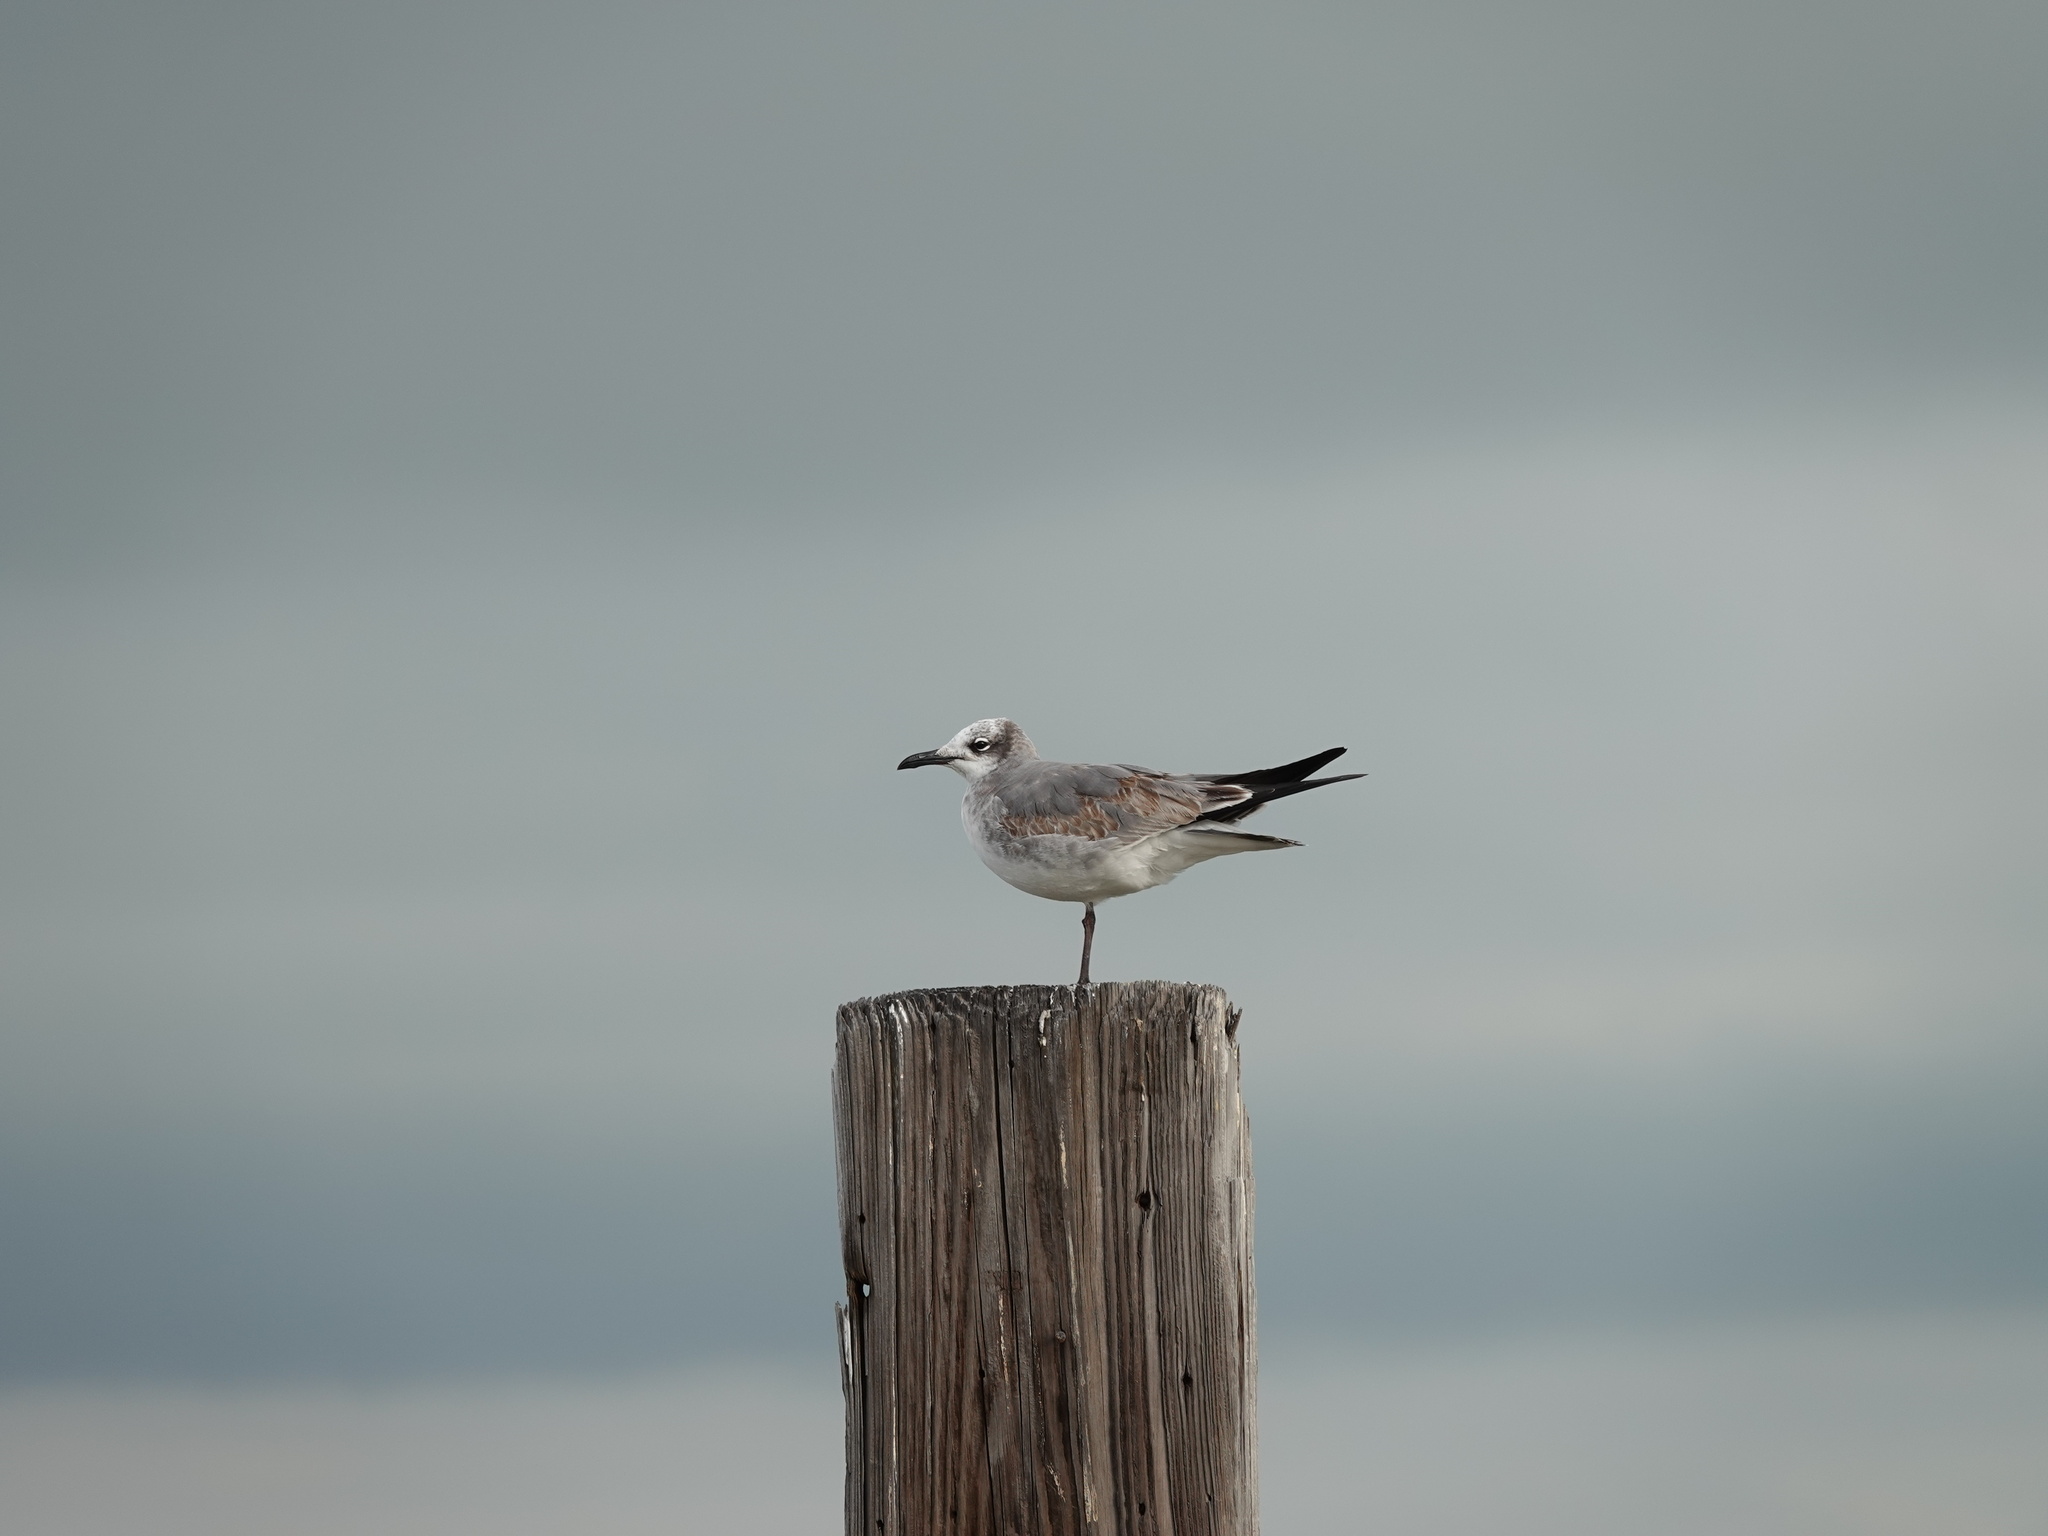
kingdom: Animalia
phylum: Chordata
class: Aves
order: Charadriiformes
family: Laridae
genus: Leucophaeus
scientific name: Leucophaeus atricilla
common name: Laughing gull
